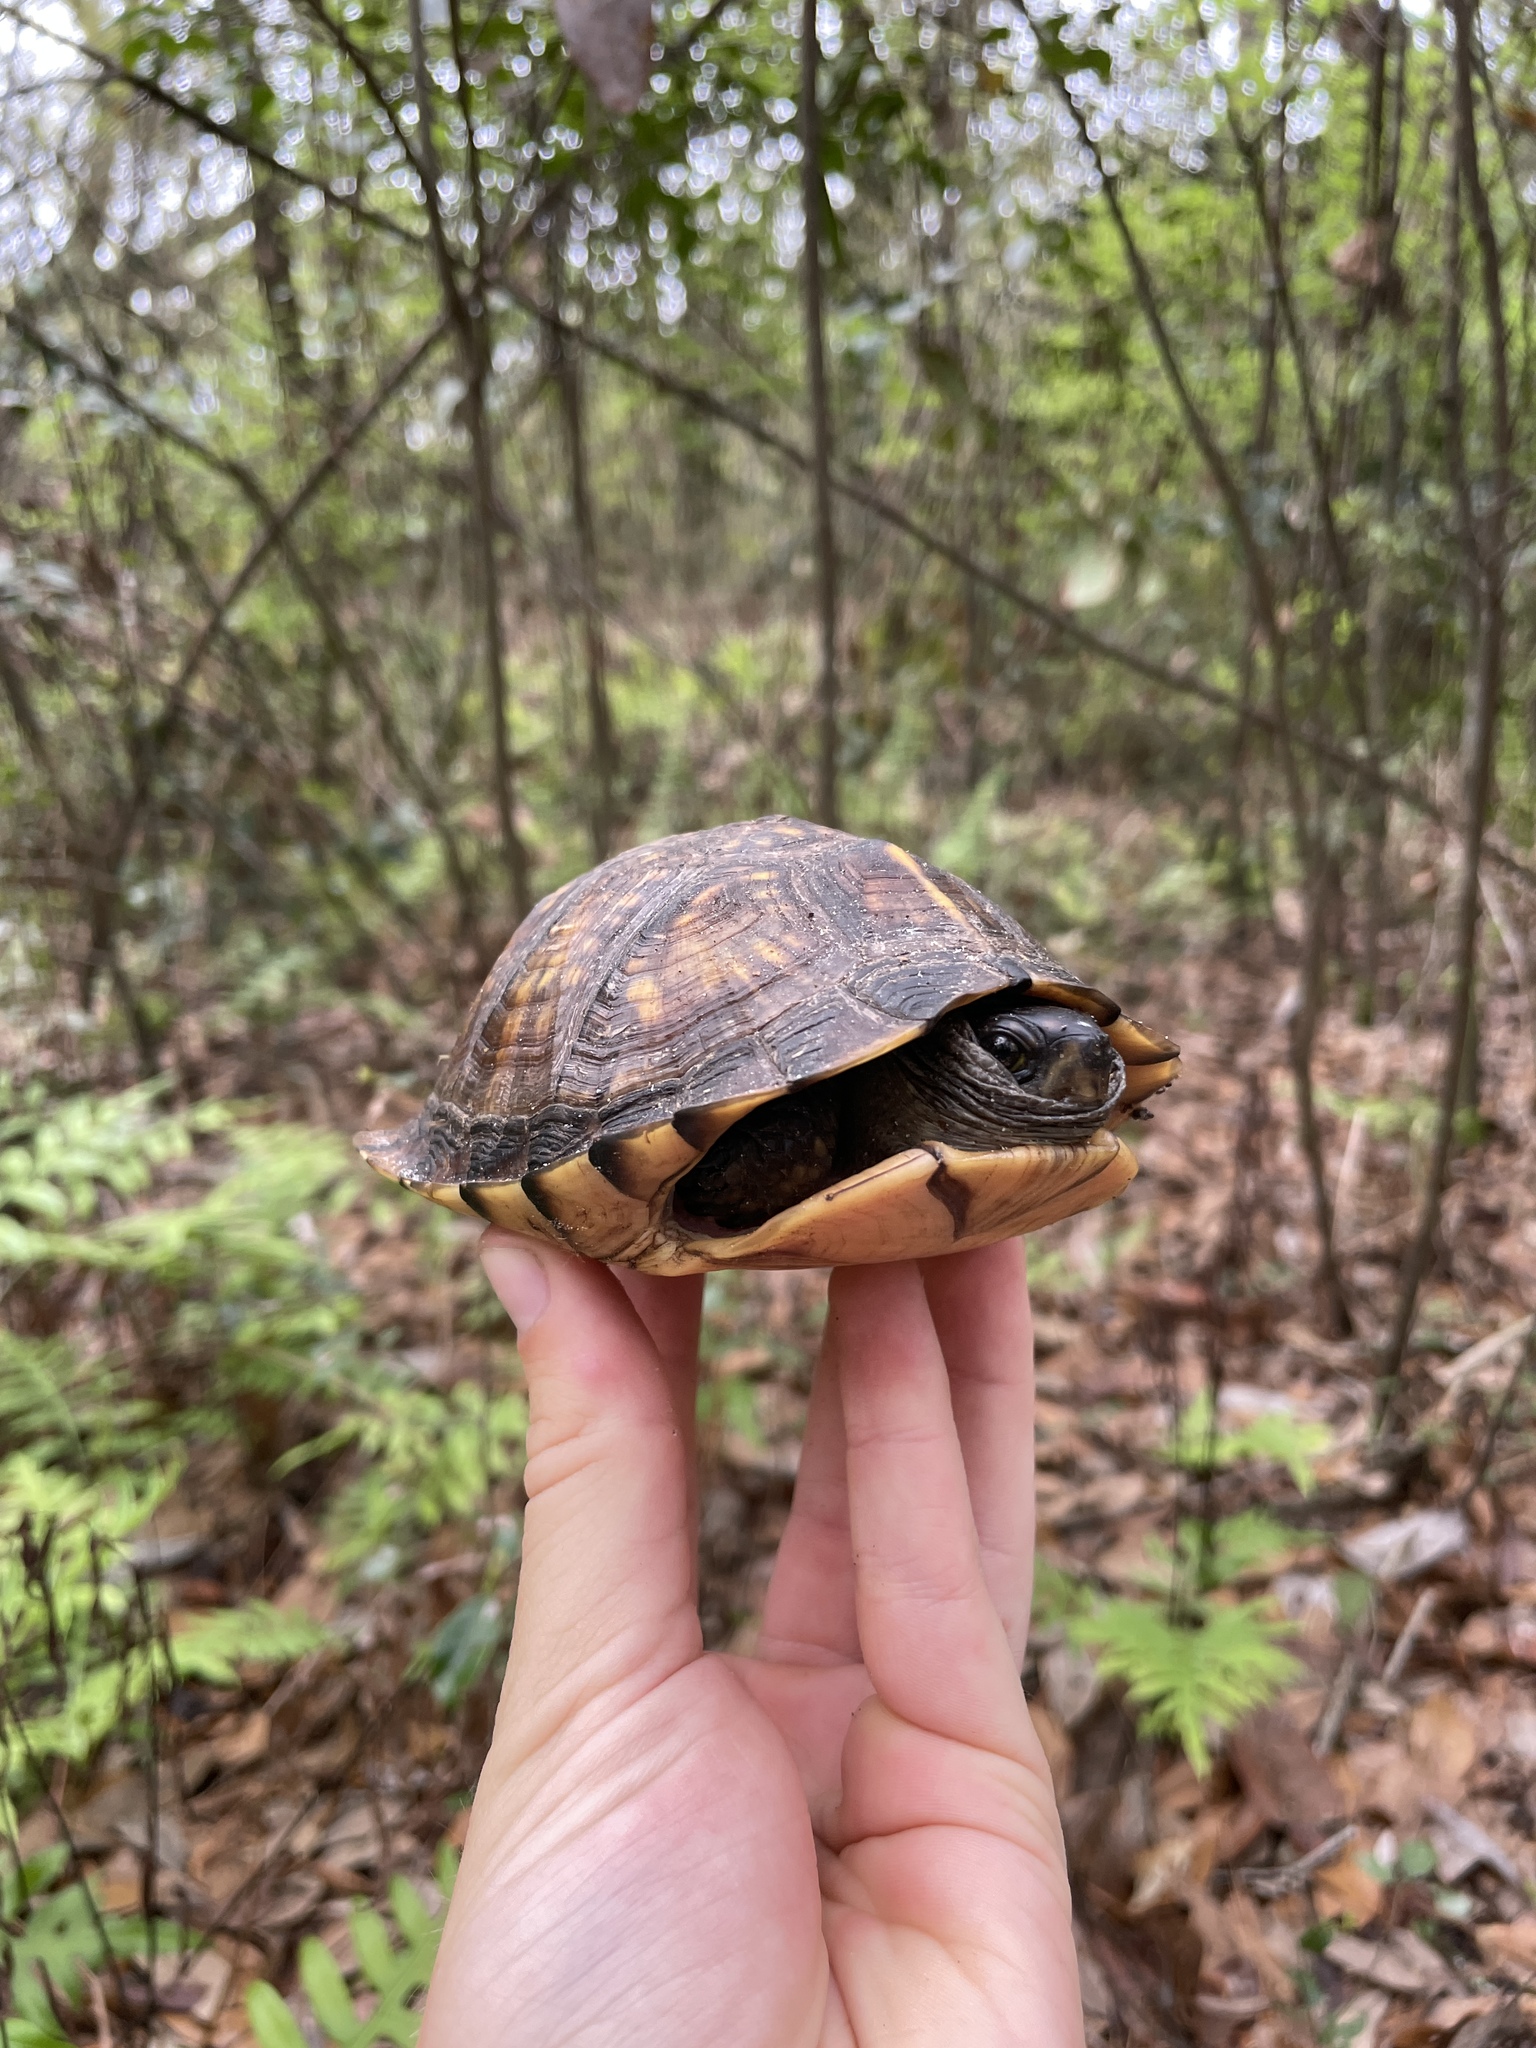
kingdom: Animalia
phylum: Chordata
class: Testudines
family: Emydidae
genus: Terrapene
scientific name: Terrapene carolina
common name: Common box turtle
